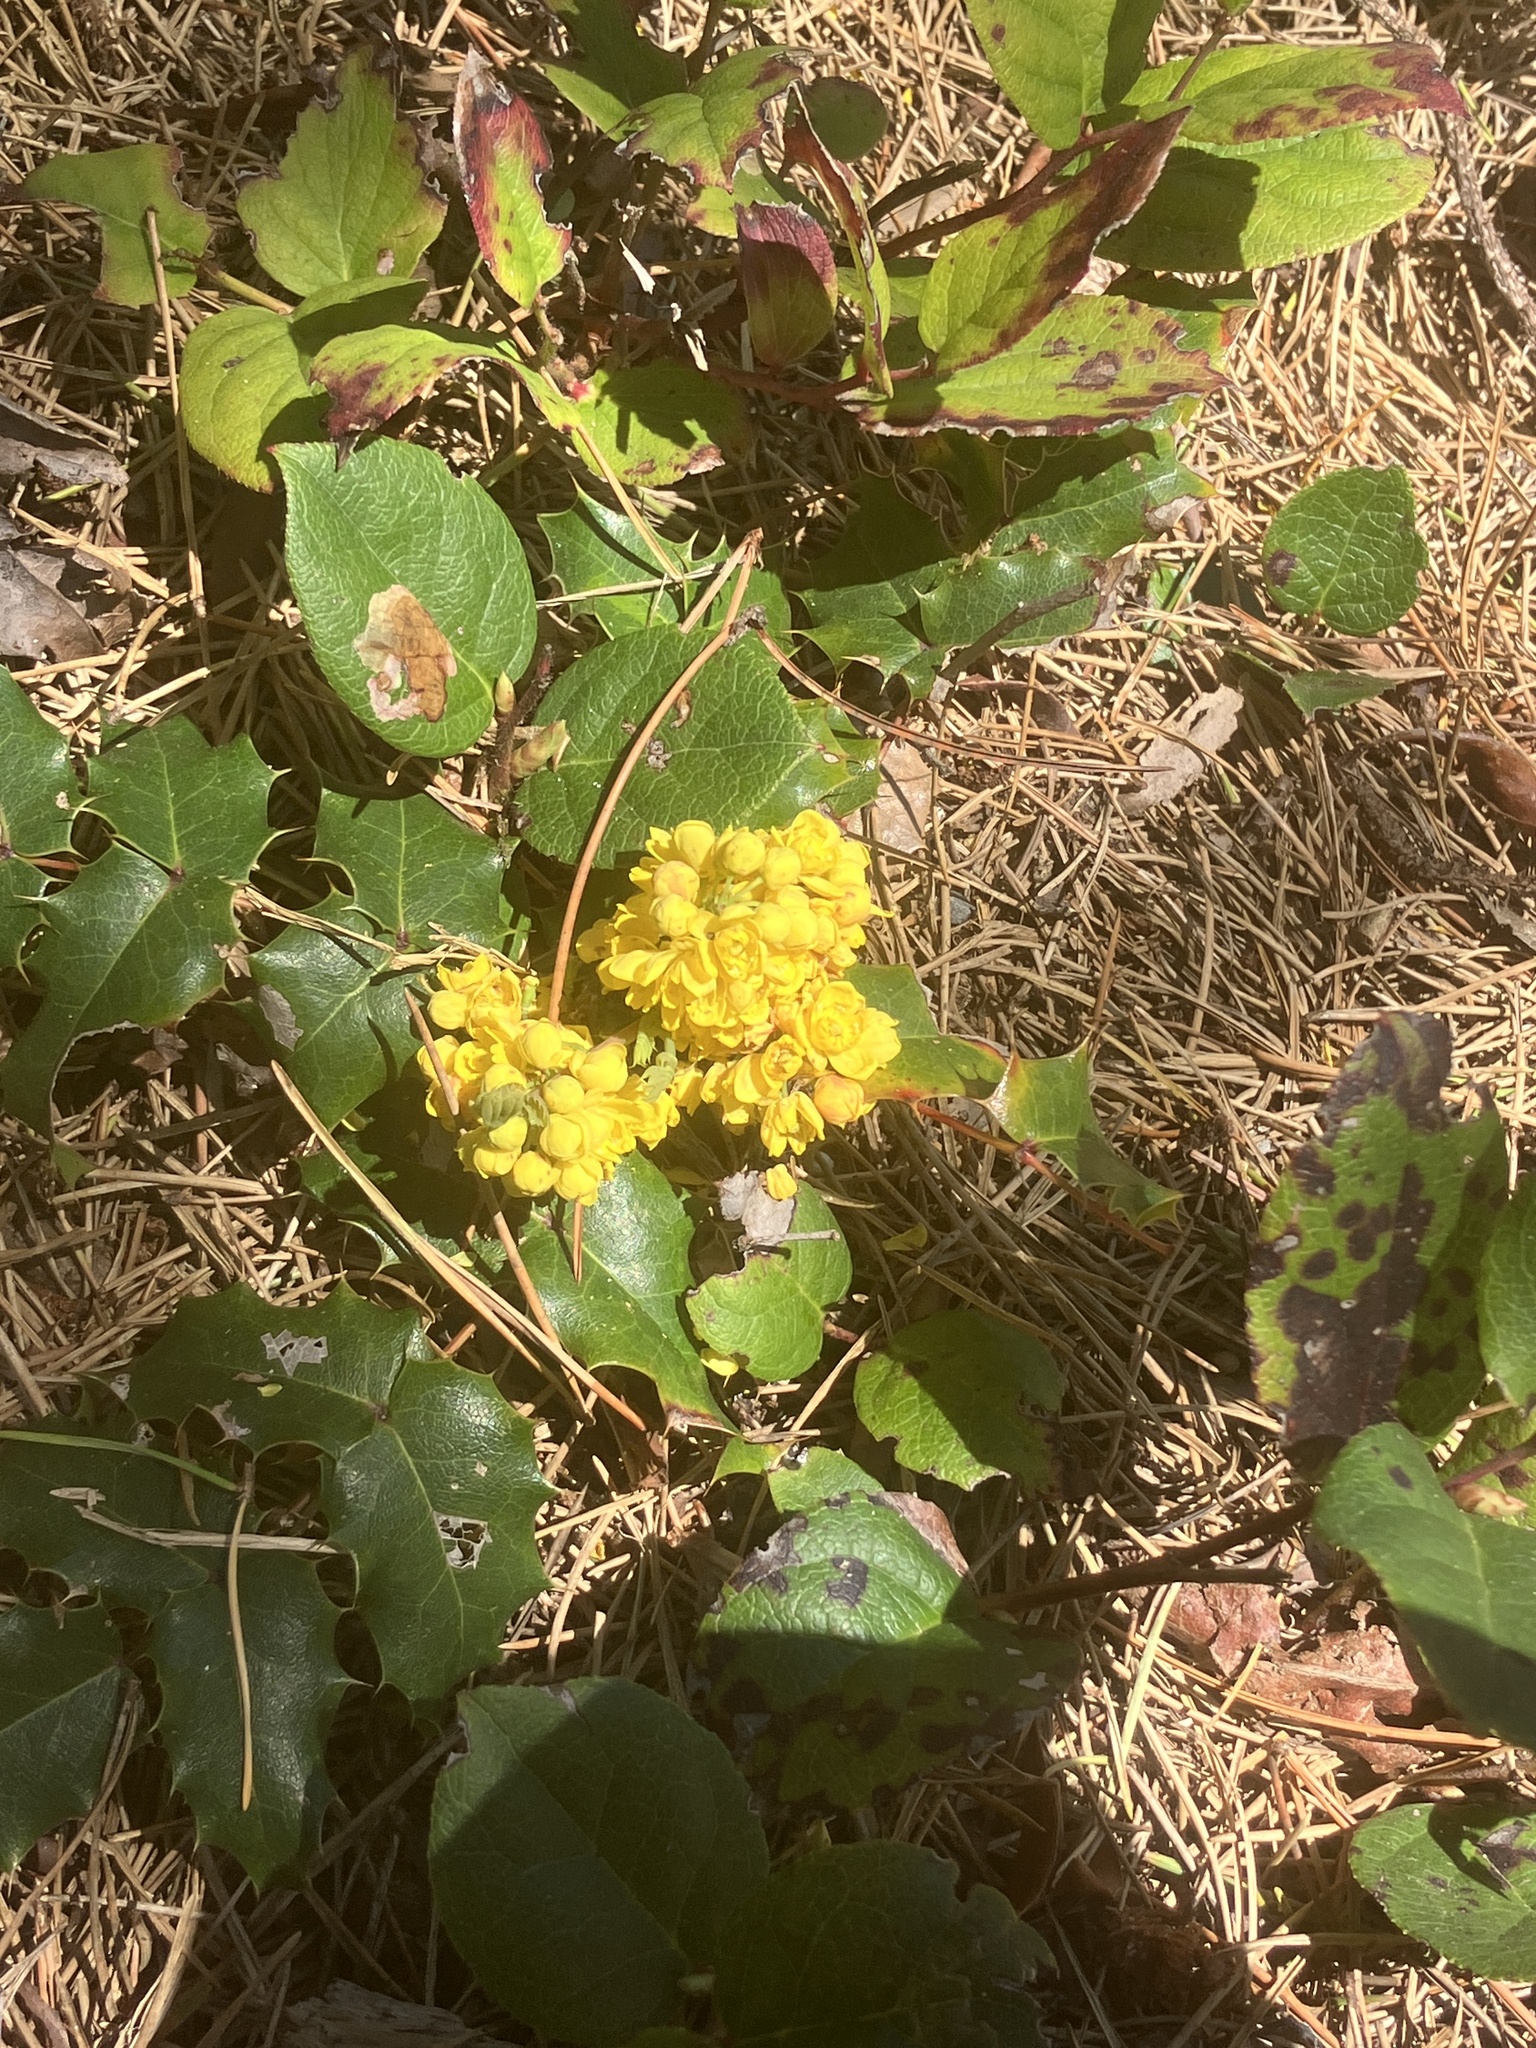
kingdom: Plantae
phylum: Tracheophyta
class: Magnoliopsida
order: Ranunculales
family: Berberidaceae
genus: Mahonia
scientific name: Mahonia aquifolium
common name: Oregon-grape
